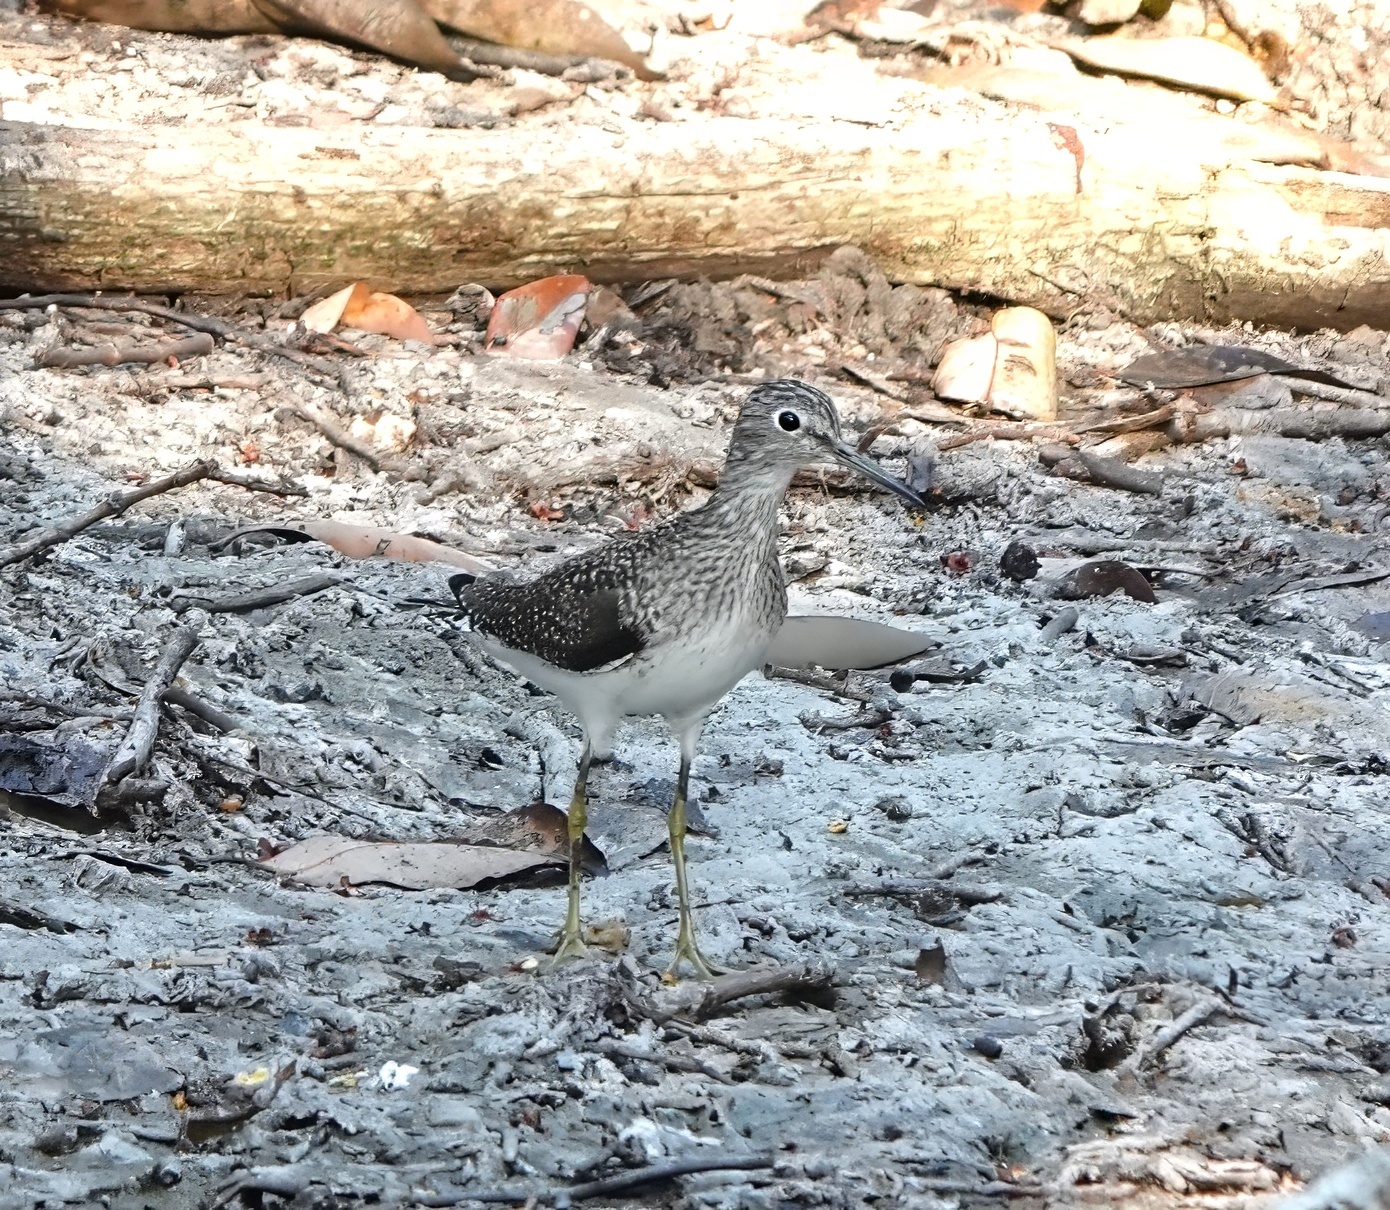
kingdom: Animalia
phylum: Chordata
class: Aves
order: Charadriiformes
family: Scolopacidae
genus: Tringa
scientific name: Tringa solitaria
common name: Solitary sandpiper
